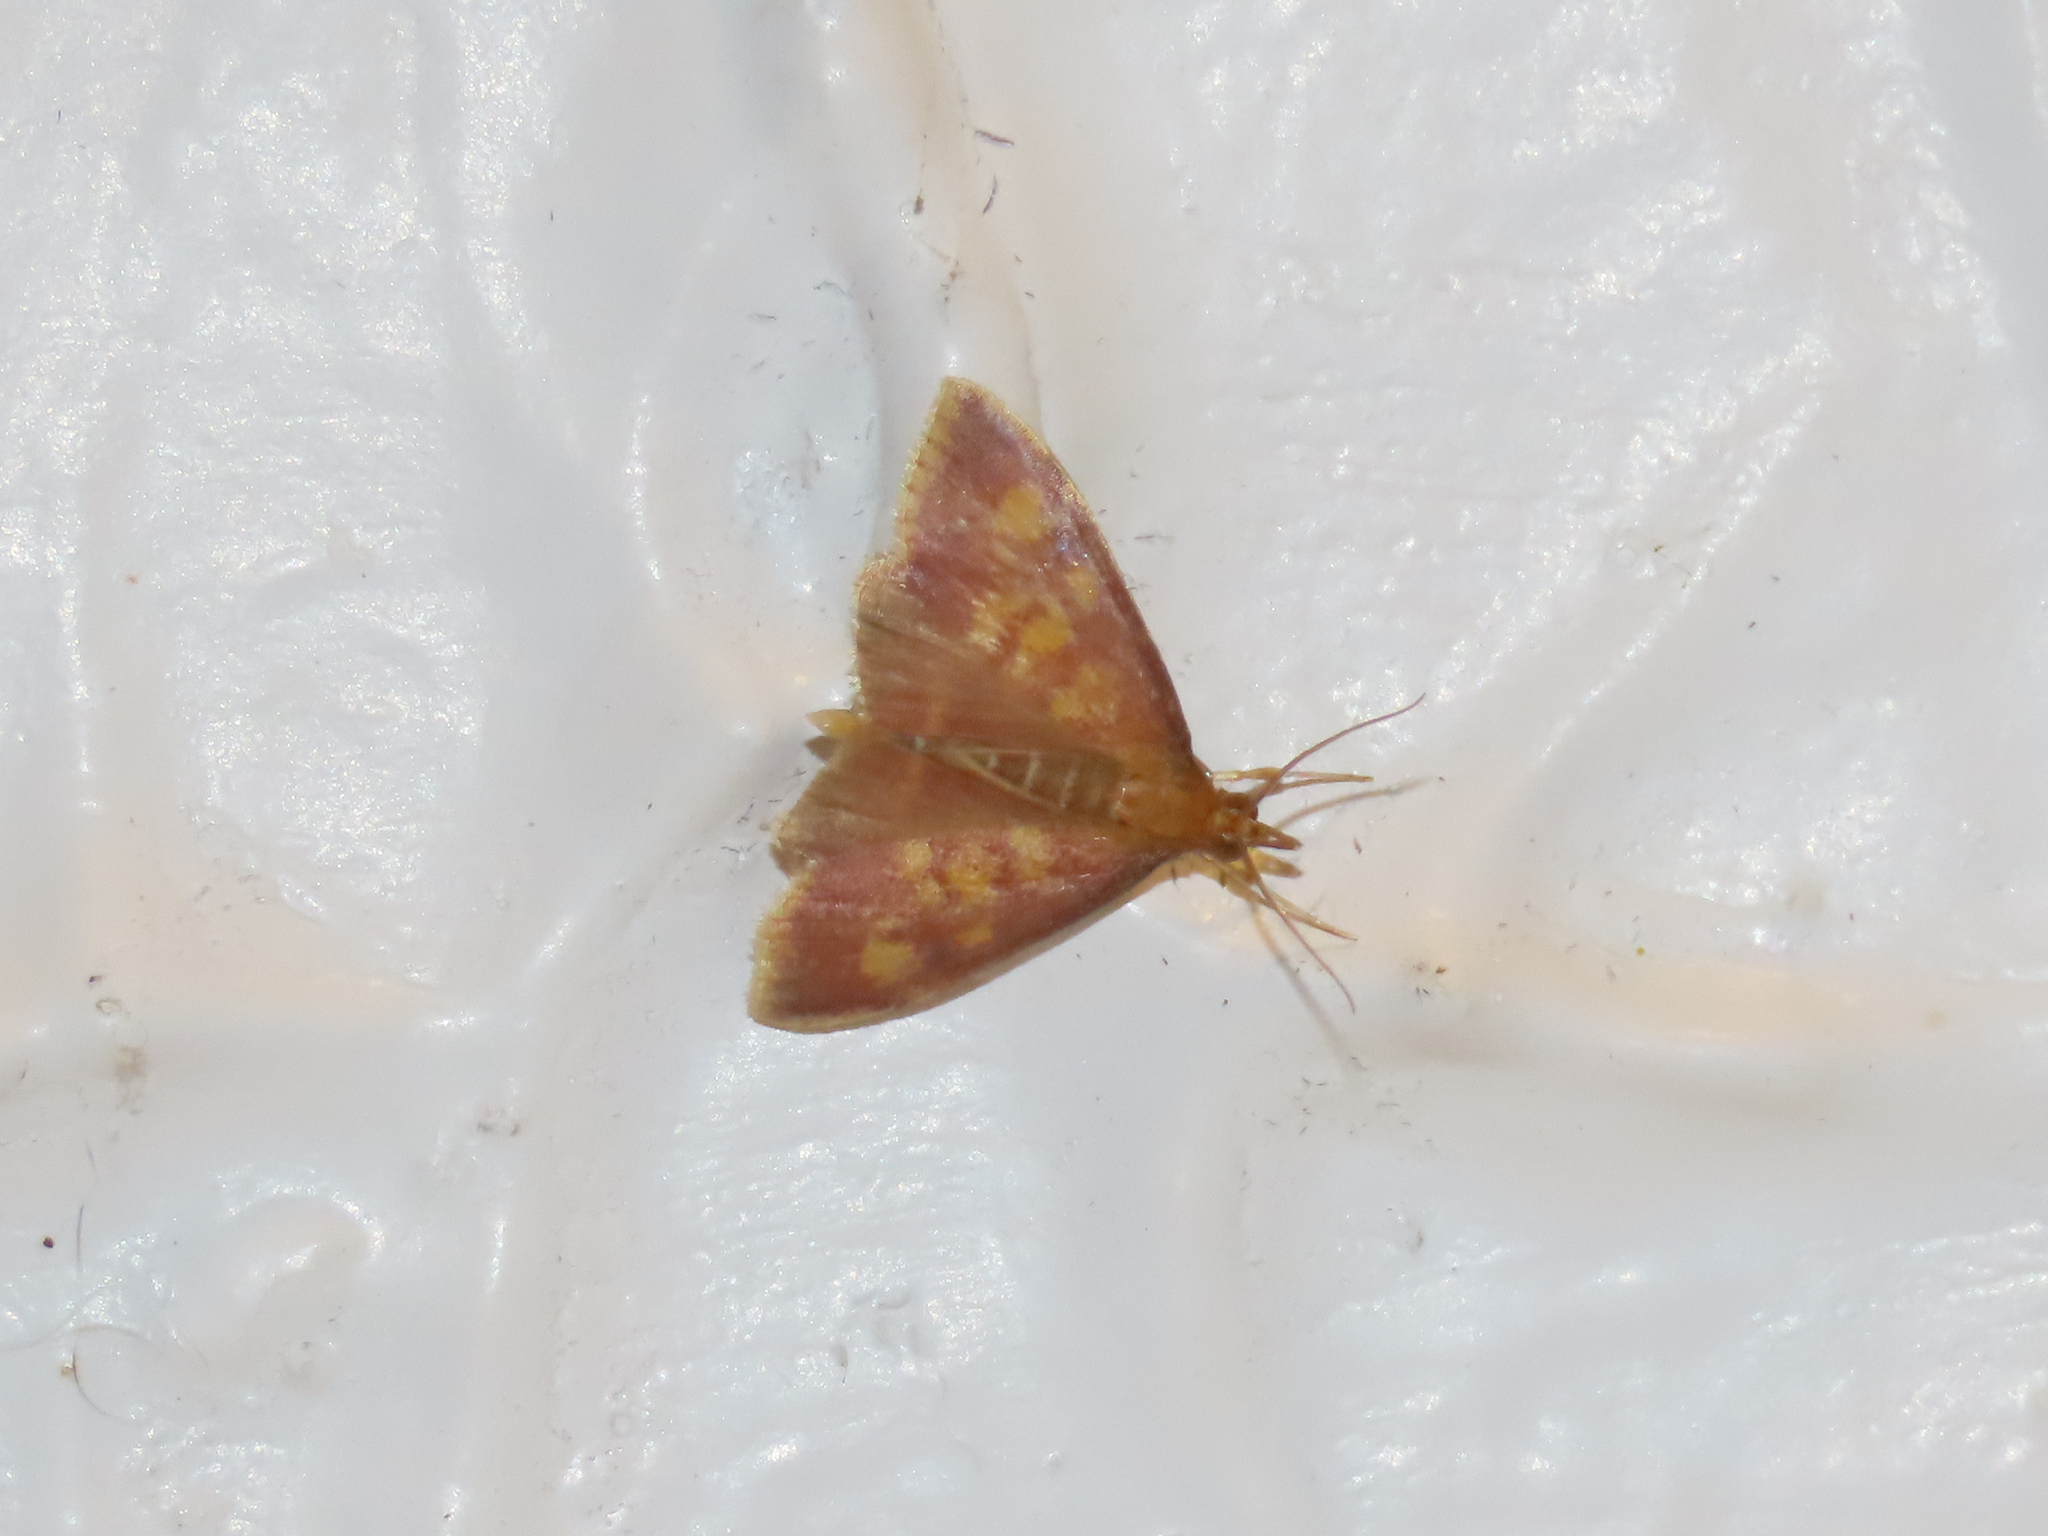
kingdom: Animalia
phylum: Arthropoda
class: Insecta
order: Lepidoptera
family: Crambidae
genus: Pyrausta
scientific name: Pyrausta acrionalis
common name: Mint-loving pyrausta moth
